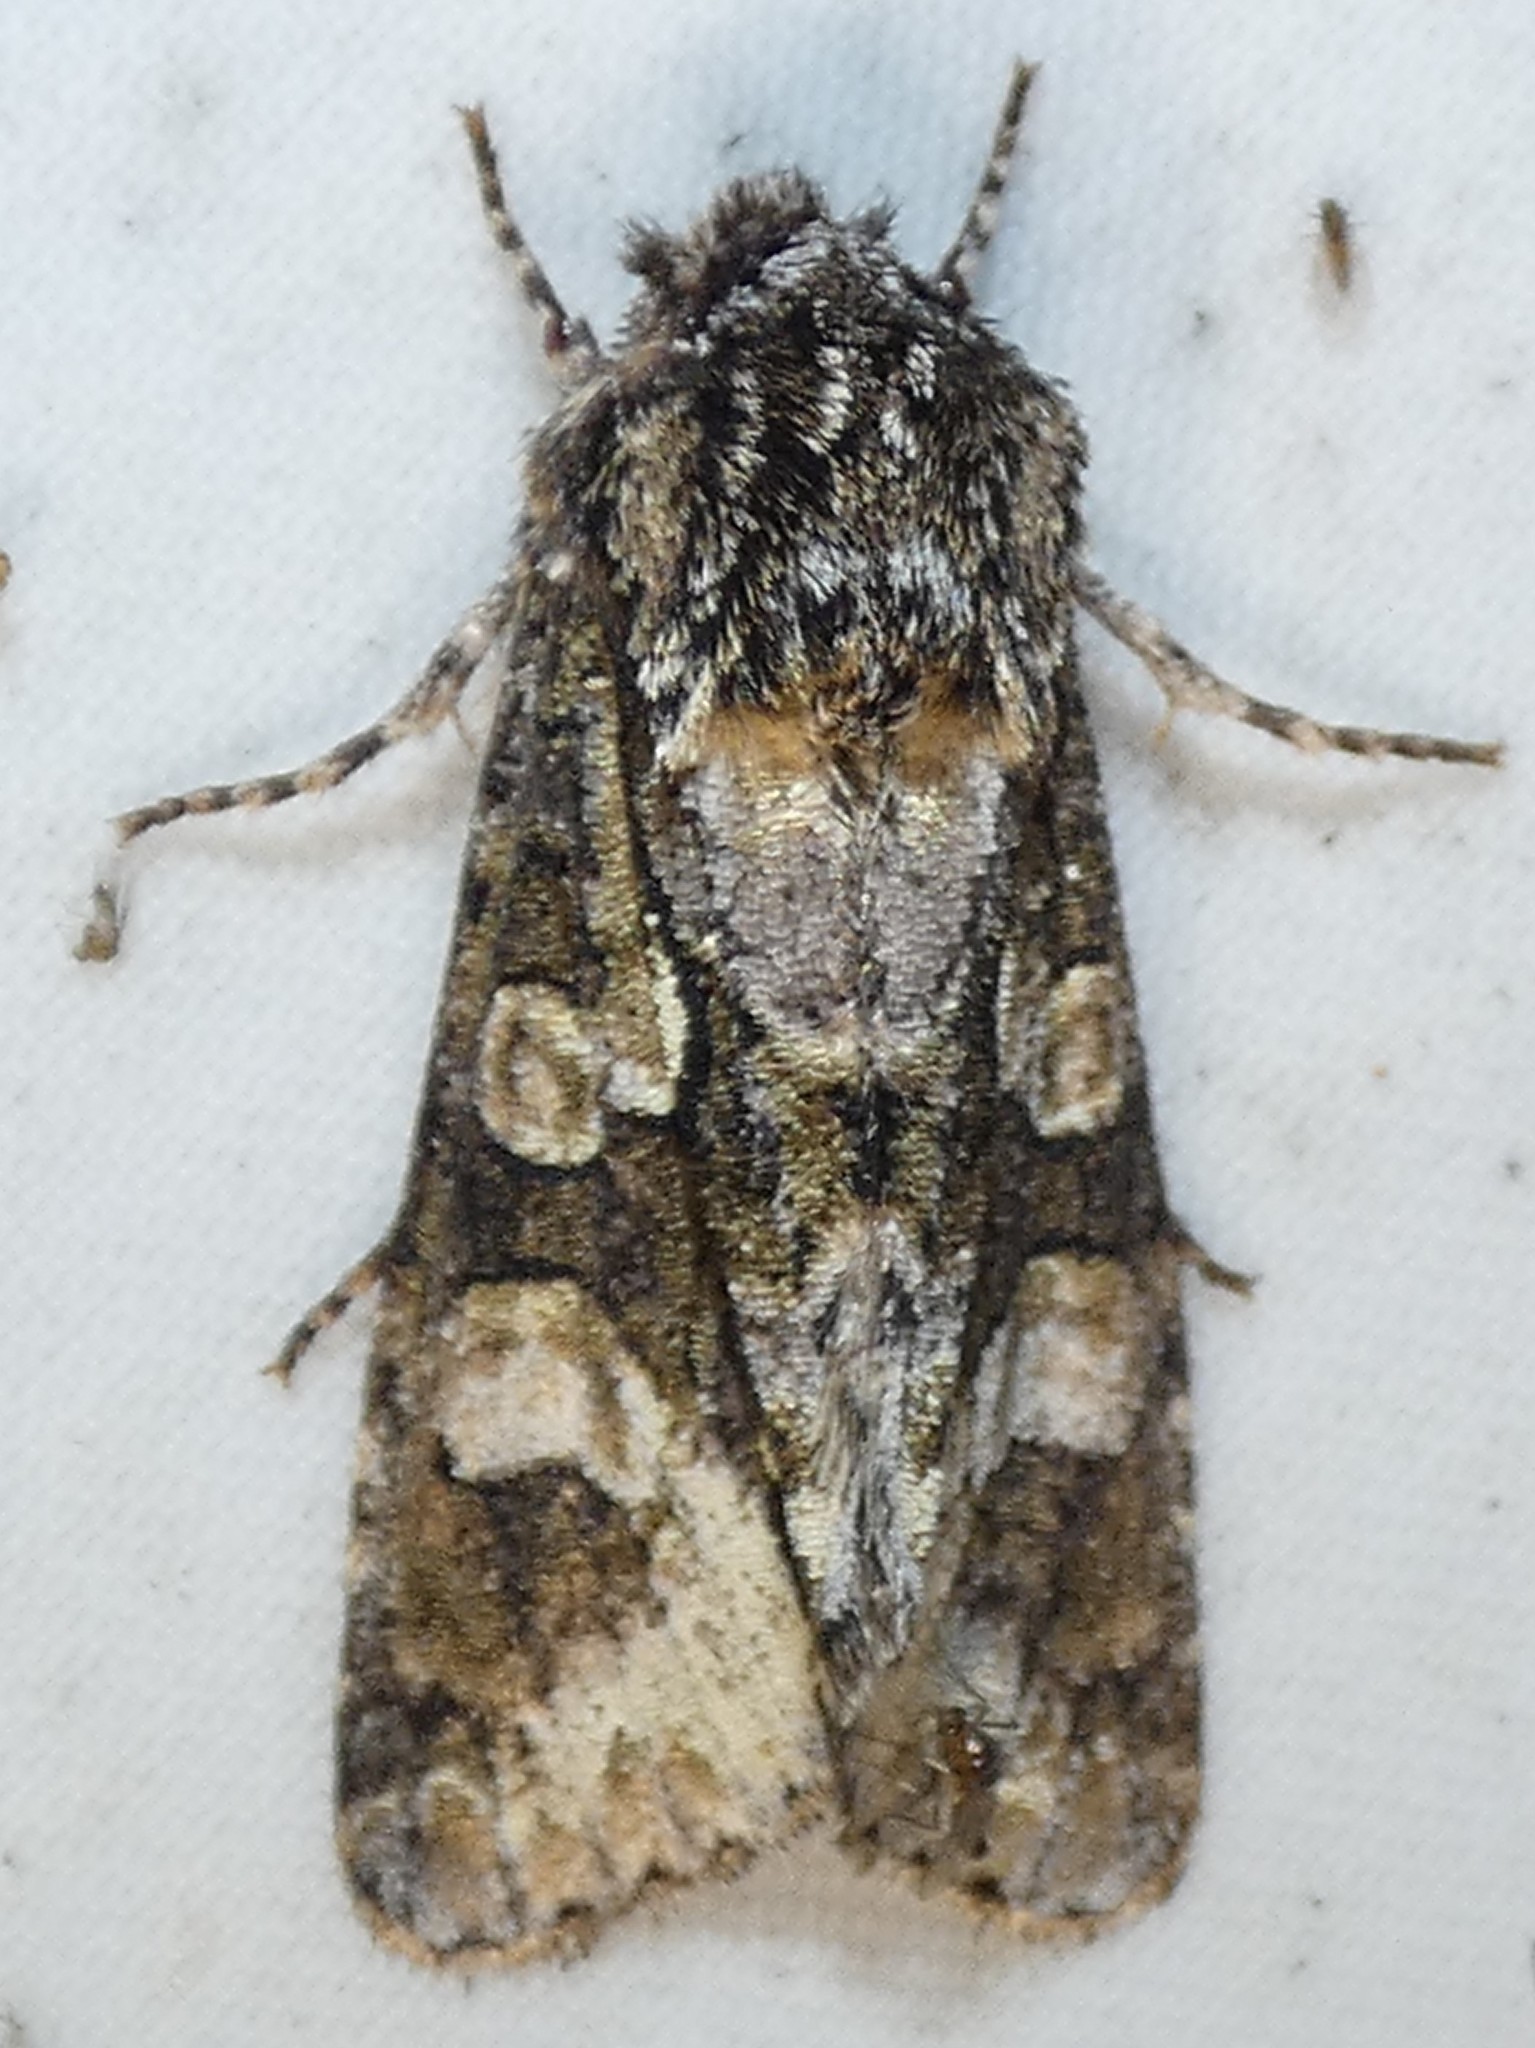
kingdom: Animalia
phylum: Arthropoda
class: Insecta
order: Lepidoptera
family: Noctuidae
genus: Psaphida
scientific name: Psaphida resumens
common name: Figure-eight sallow
